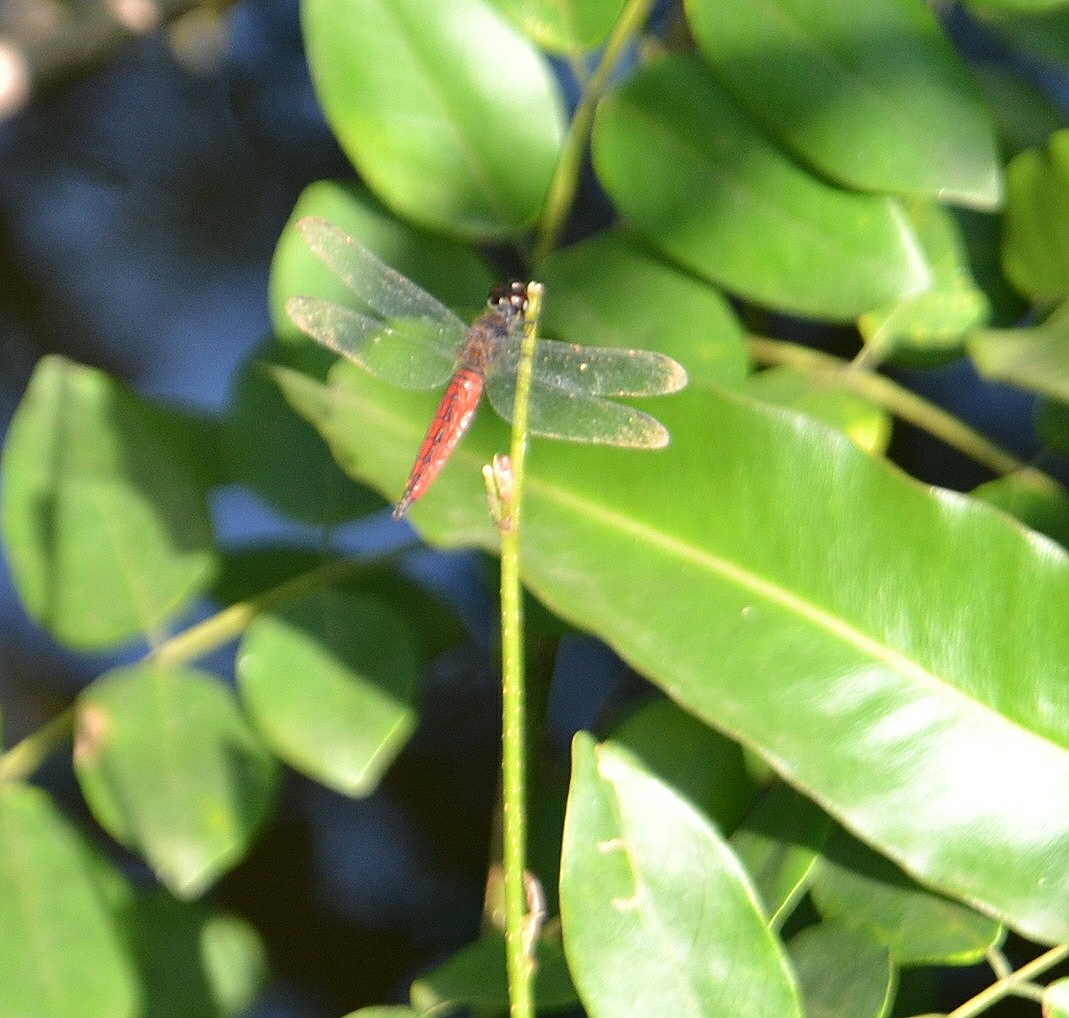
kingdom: Animalia
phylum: Arthropoda
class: Insecta
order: Odonata
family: Libellulidae
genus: Lyriothemis
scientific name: Lyriothemis acigastra
